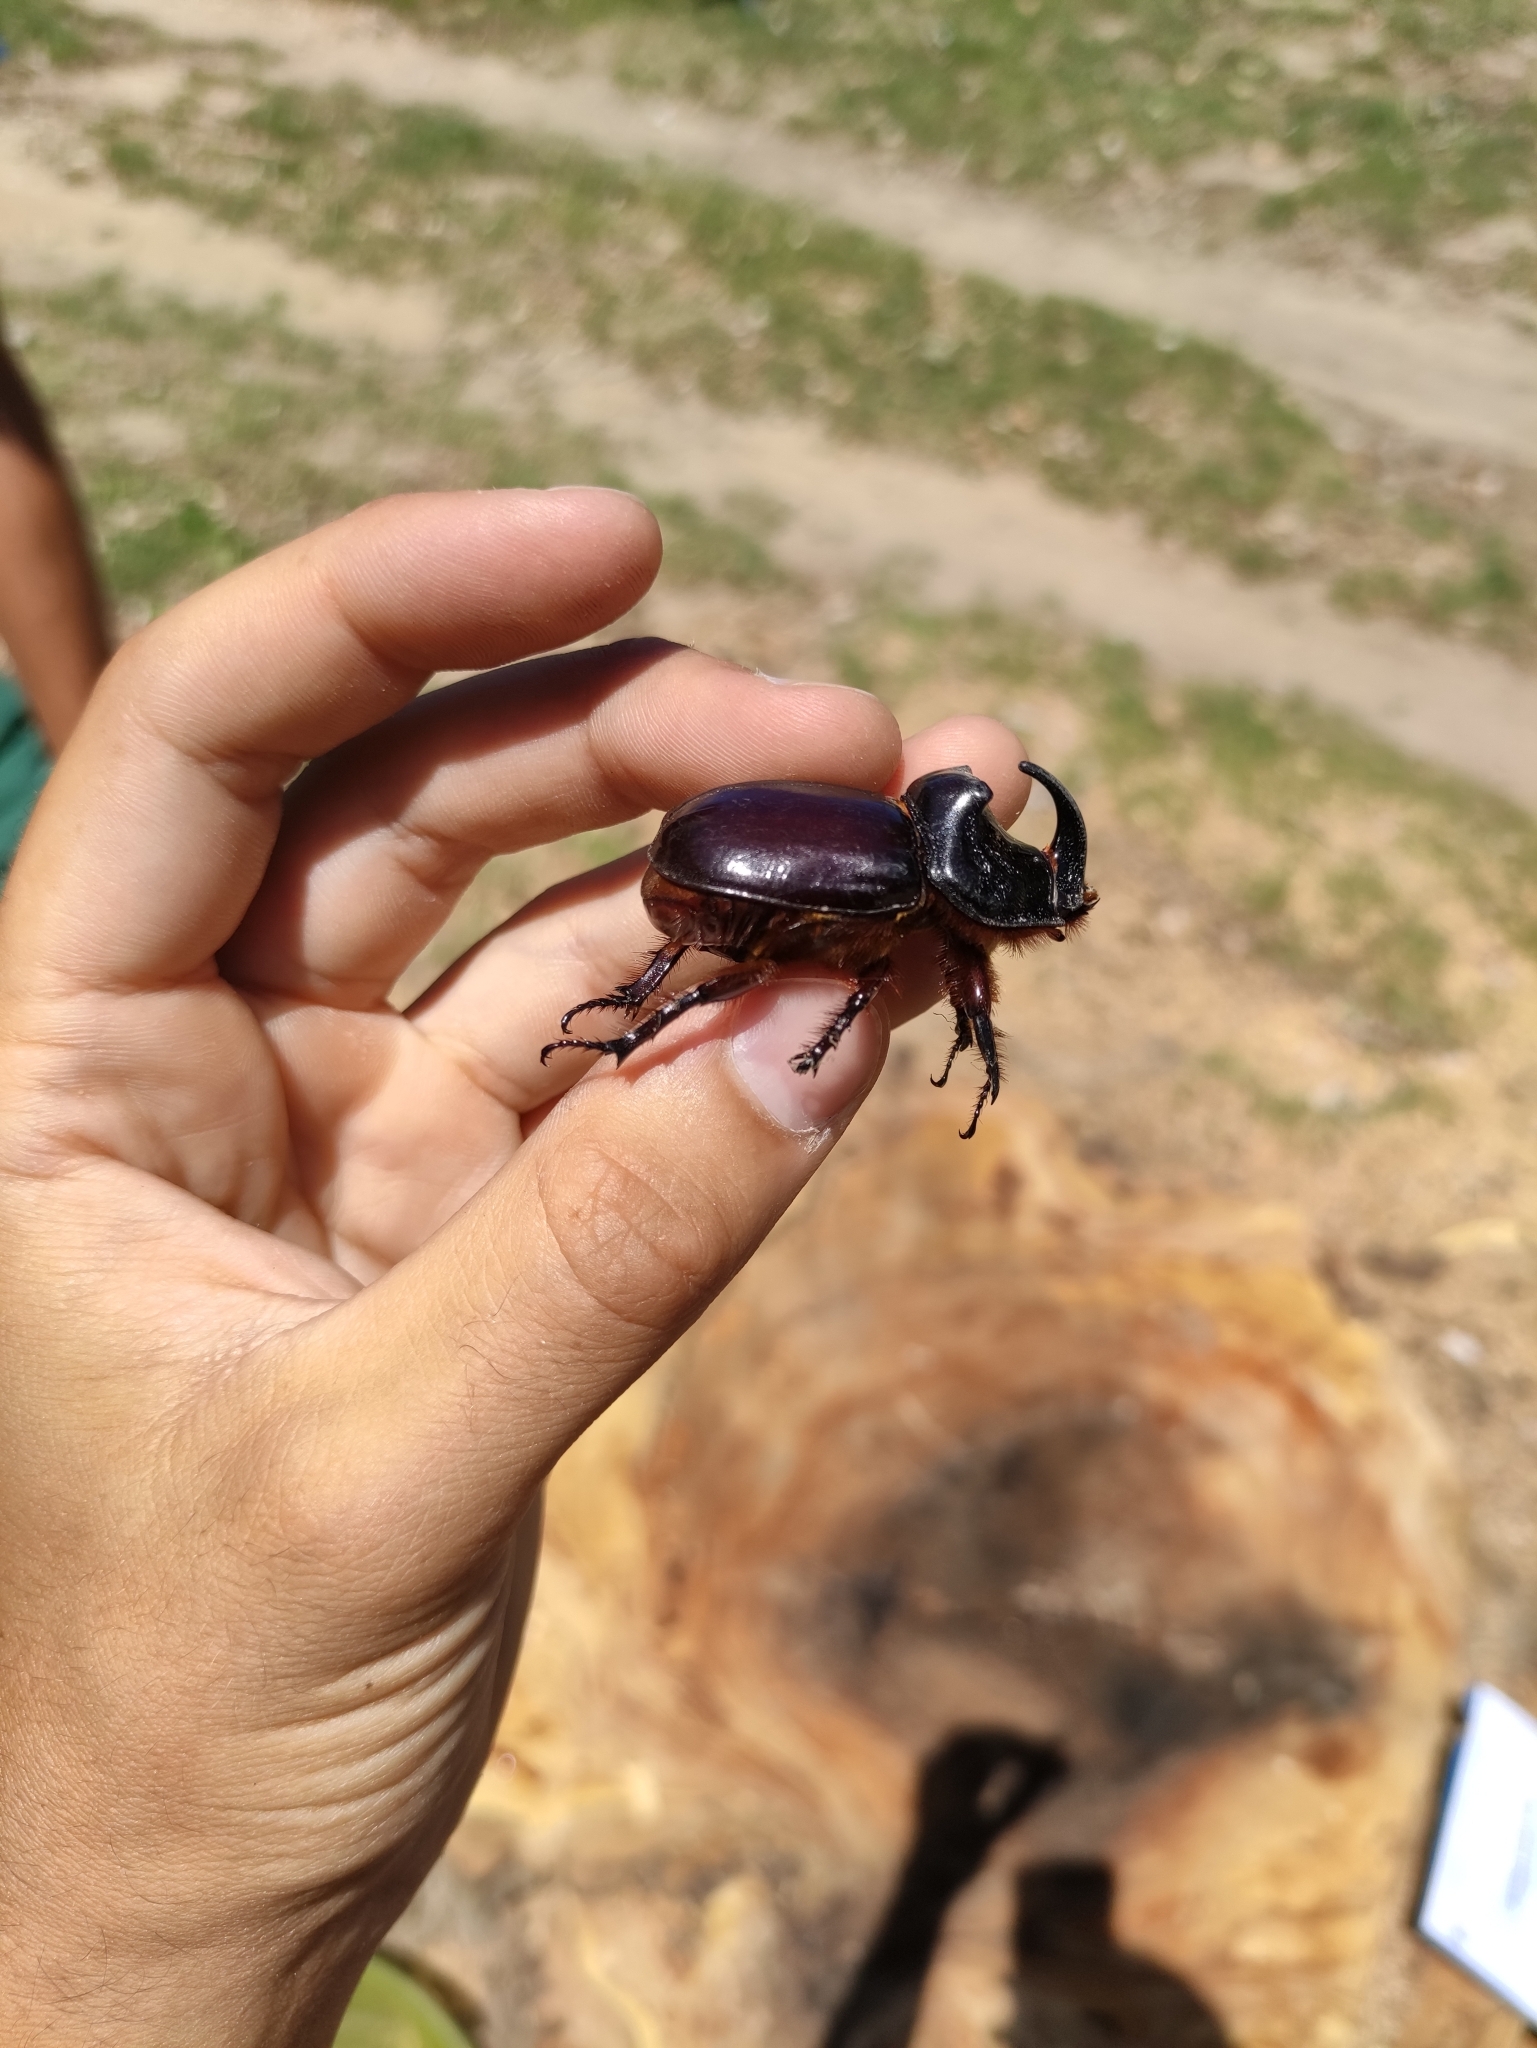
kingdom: Animalia
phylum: Arthropoda
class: Insecta
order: Coleoptera
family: Scarabaeidae
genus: Oryctes
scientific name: Oryctes nasicornis
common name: European rhinoceros beetle
